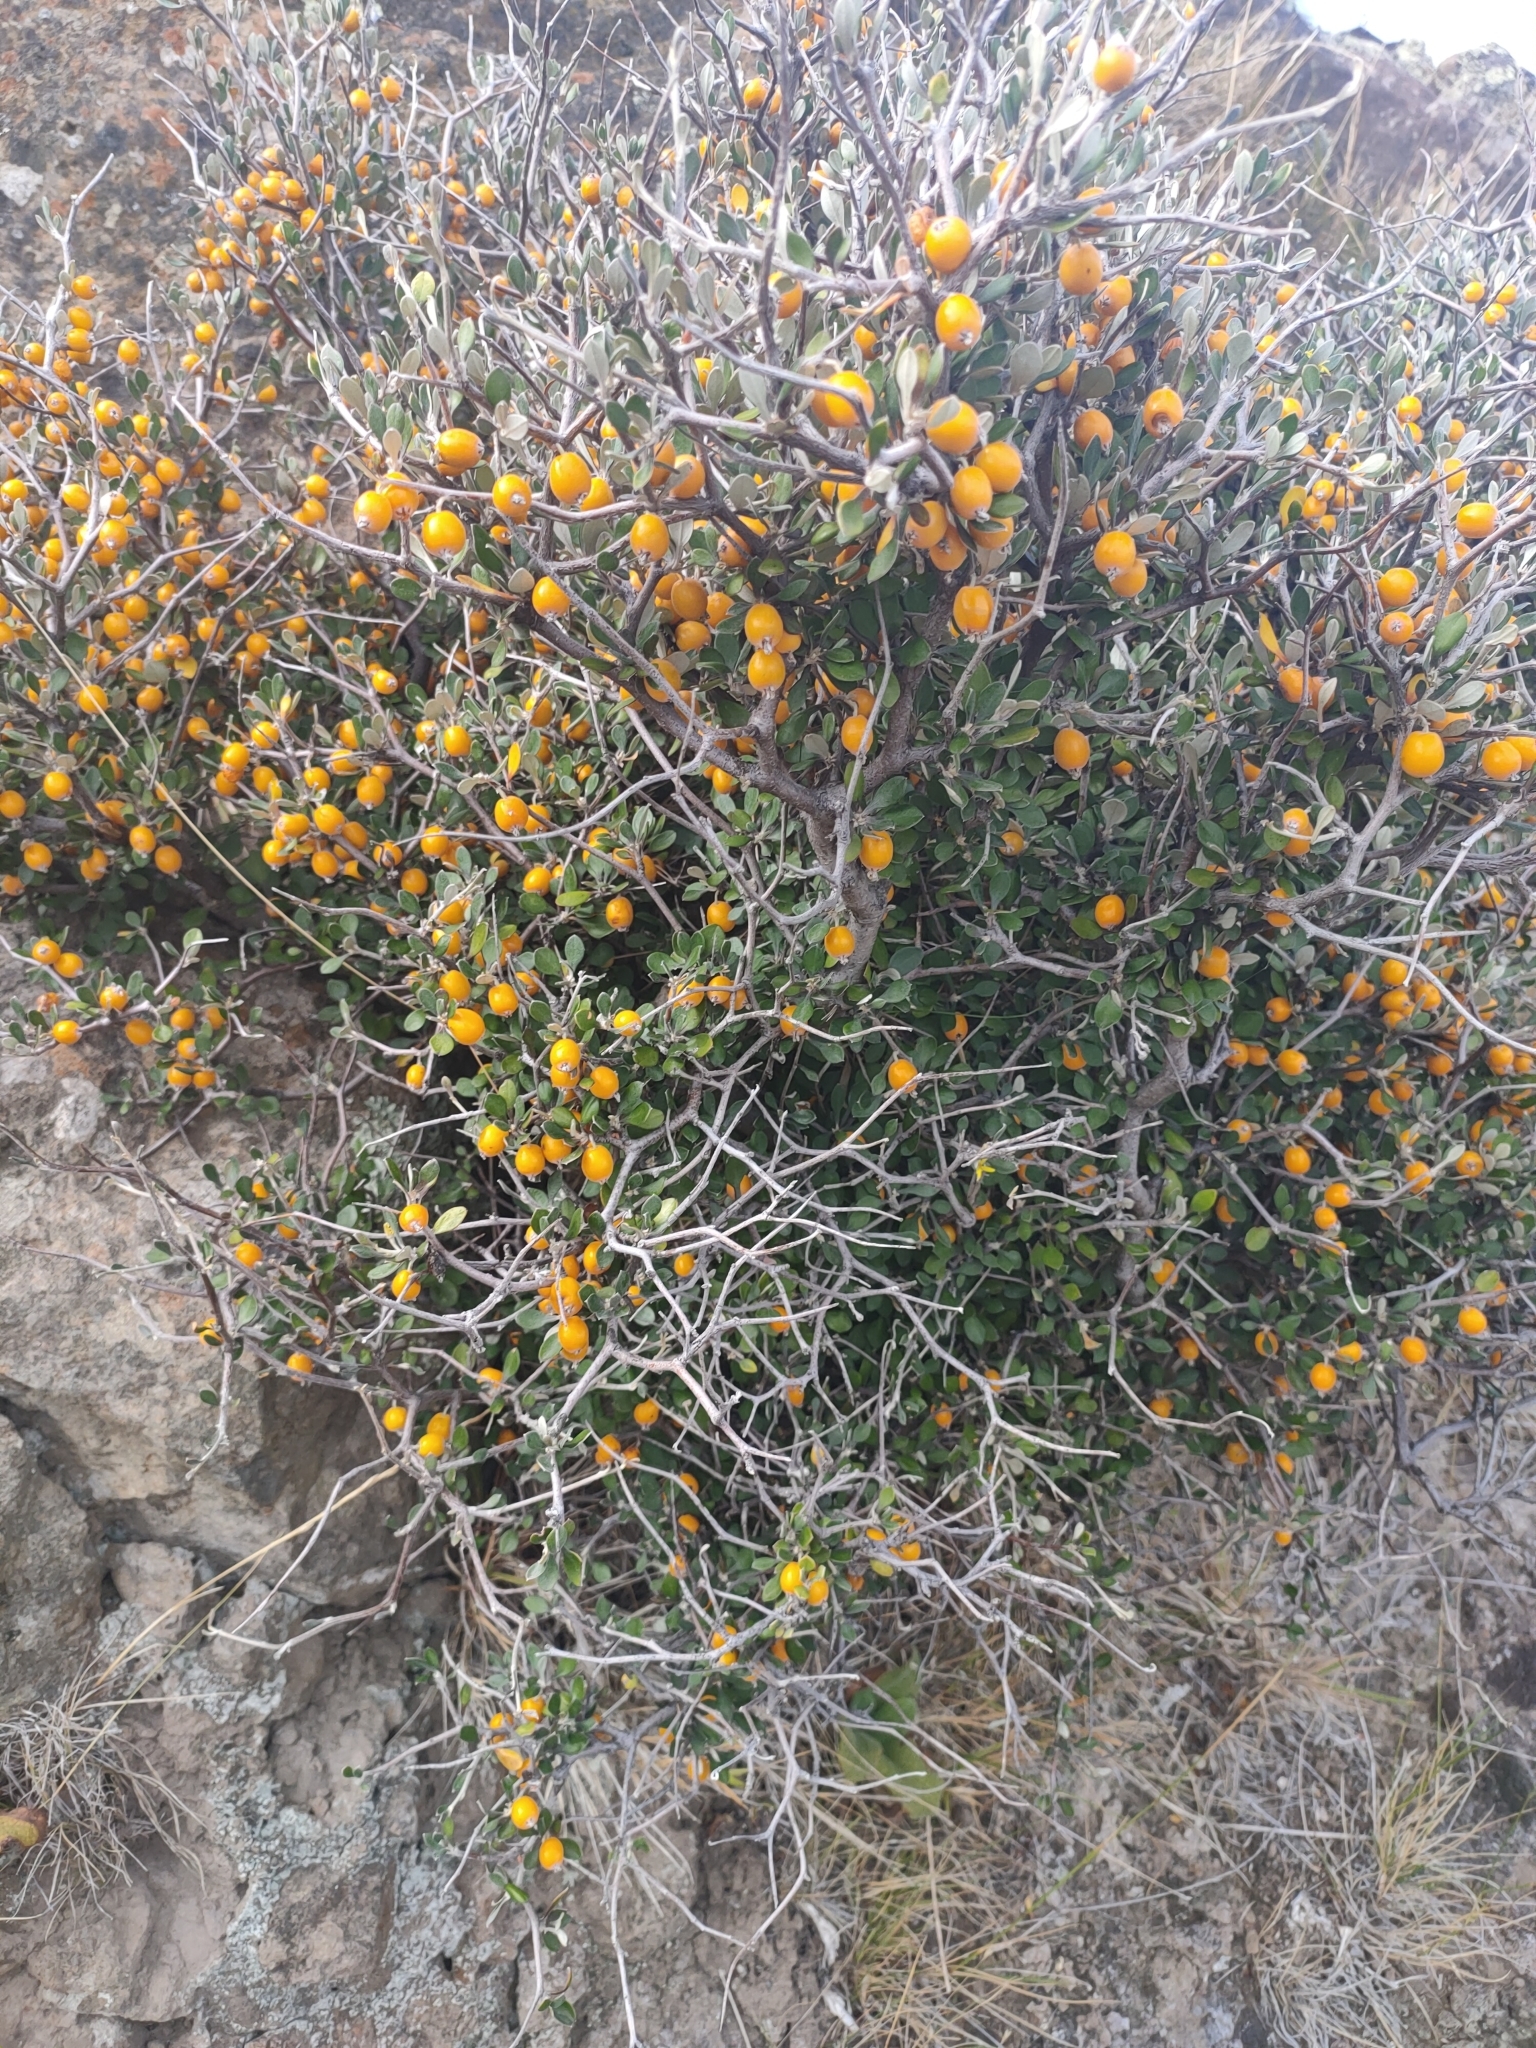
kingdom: Plantae
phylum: Tracheophyta
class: Magnoliopsida
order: Asterales
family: Argophyllaceae
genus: Corokia
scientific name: Corokia cotoneaster
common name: Wire nettingbush
